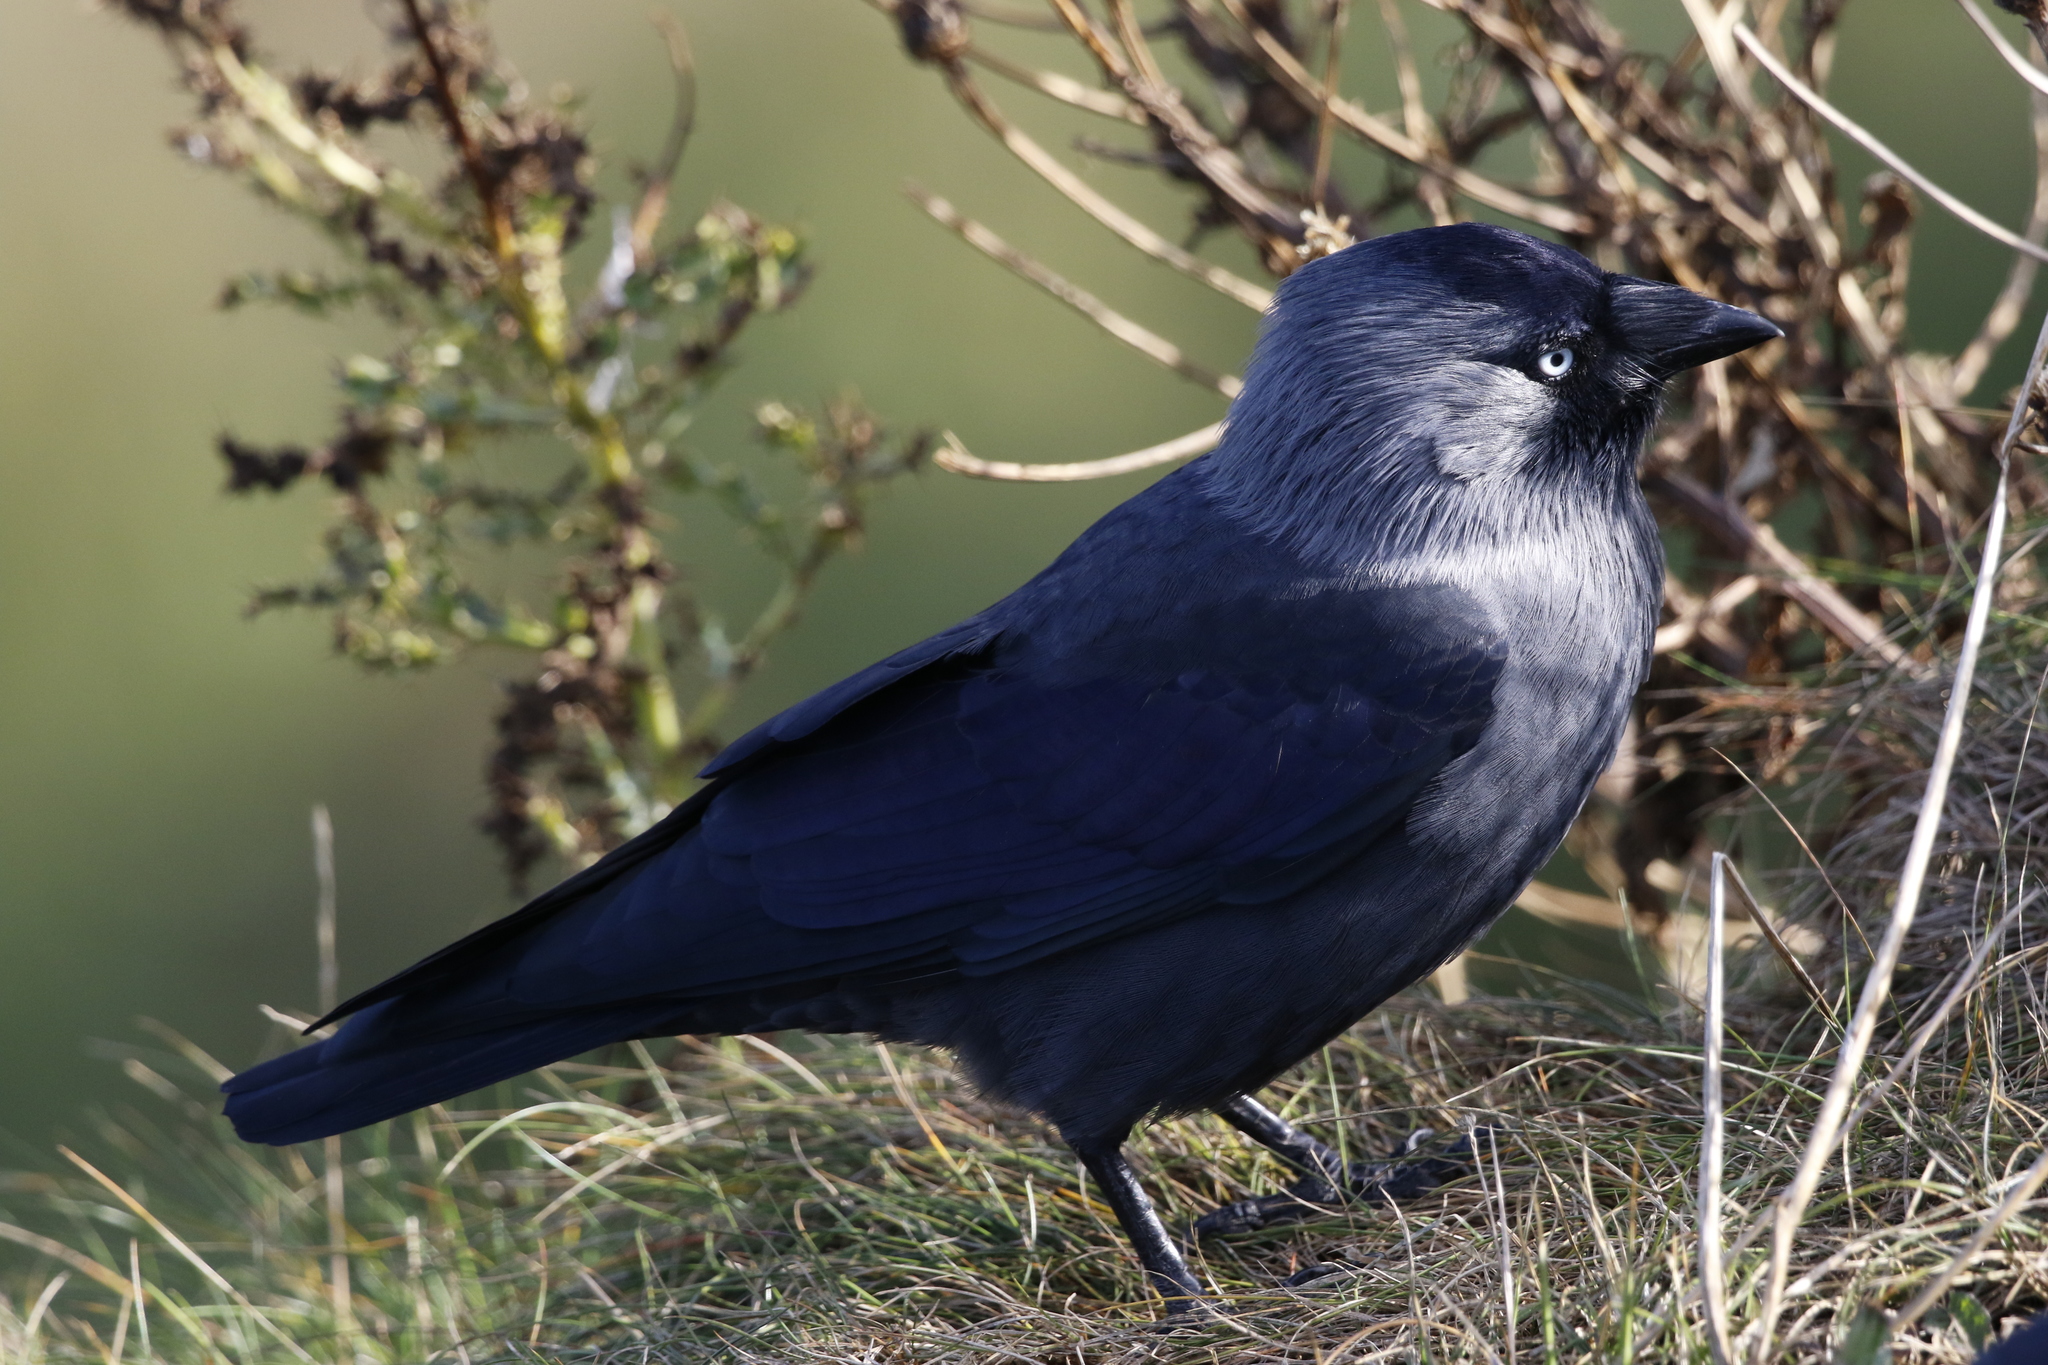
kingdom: Animalia
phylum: Chordata
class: Aves
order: Passeriformes
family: Corvidae
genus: Coloeus
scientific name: Coloeus monedula
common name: Western jackdaw
